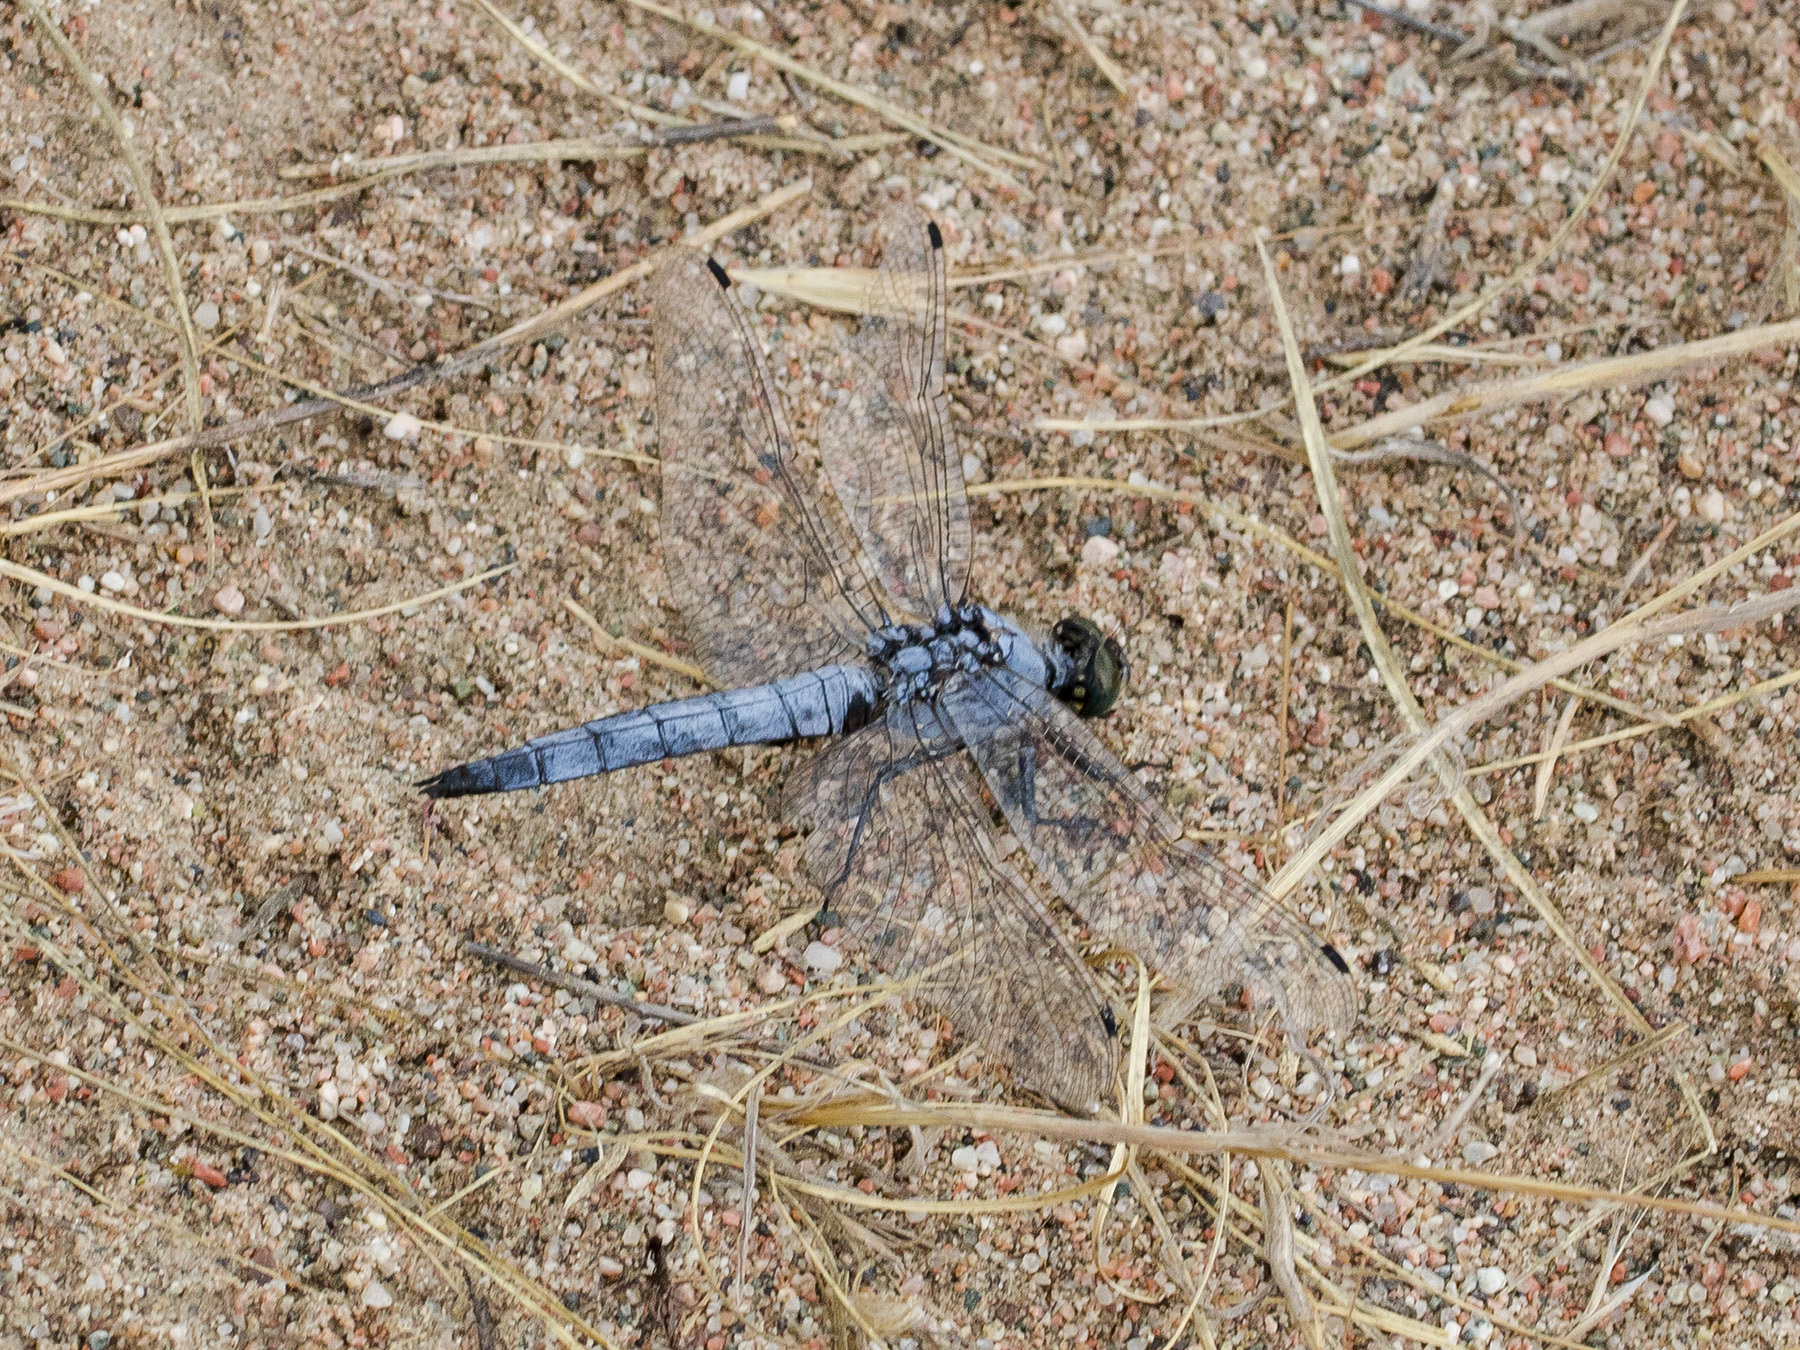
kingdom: Animalia
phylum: Arthropoda
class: Insecta
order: Odonata
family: Libellulidae
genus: Orthetrum
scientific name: Orthetrum cancellatum
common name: Black-tailed skimmer
